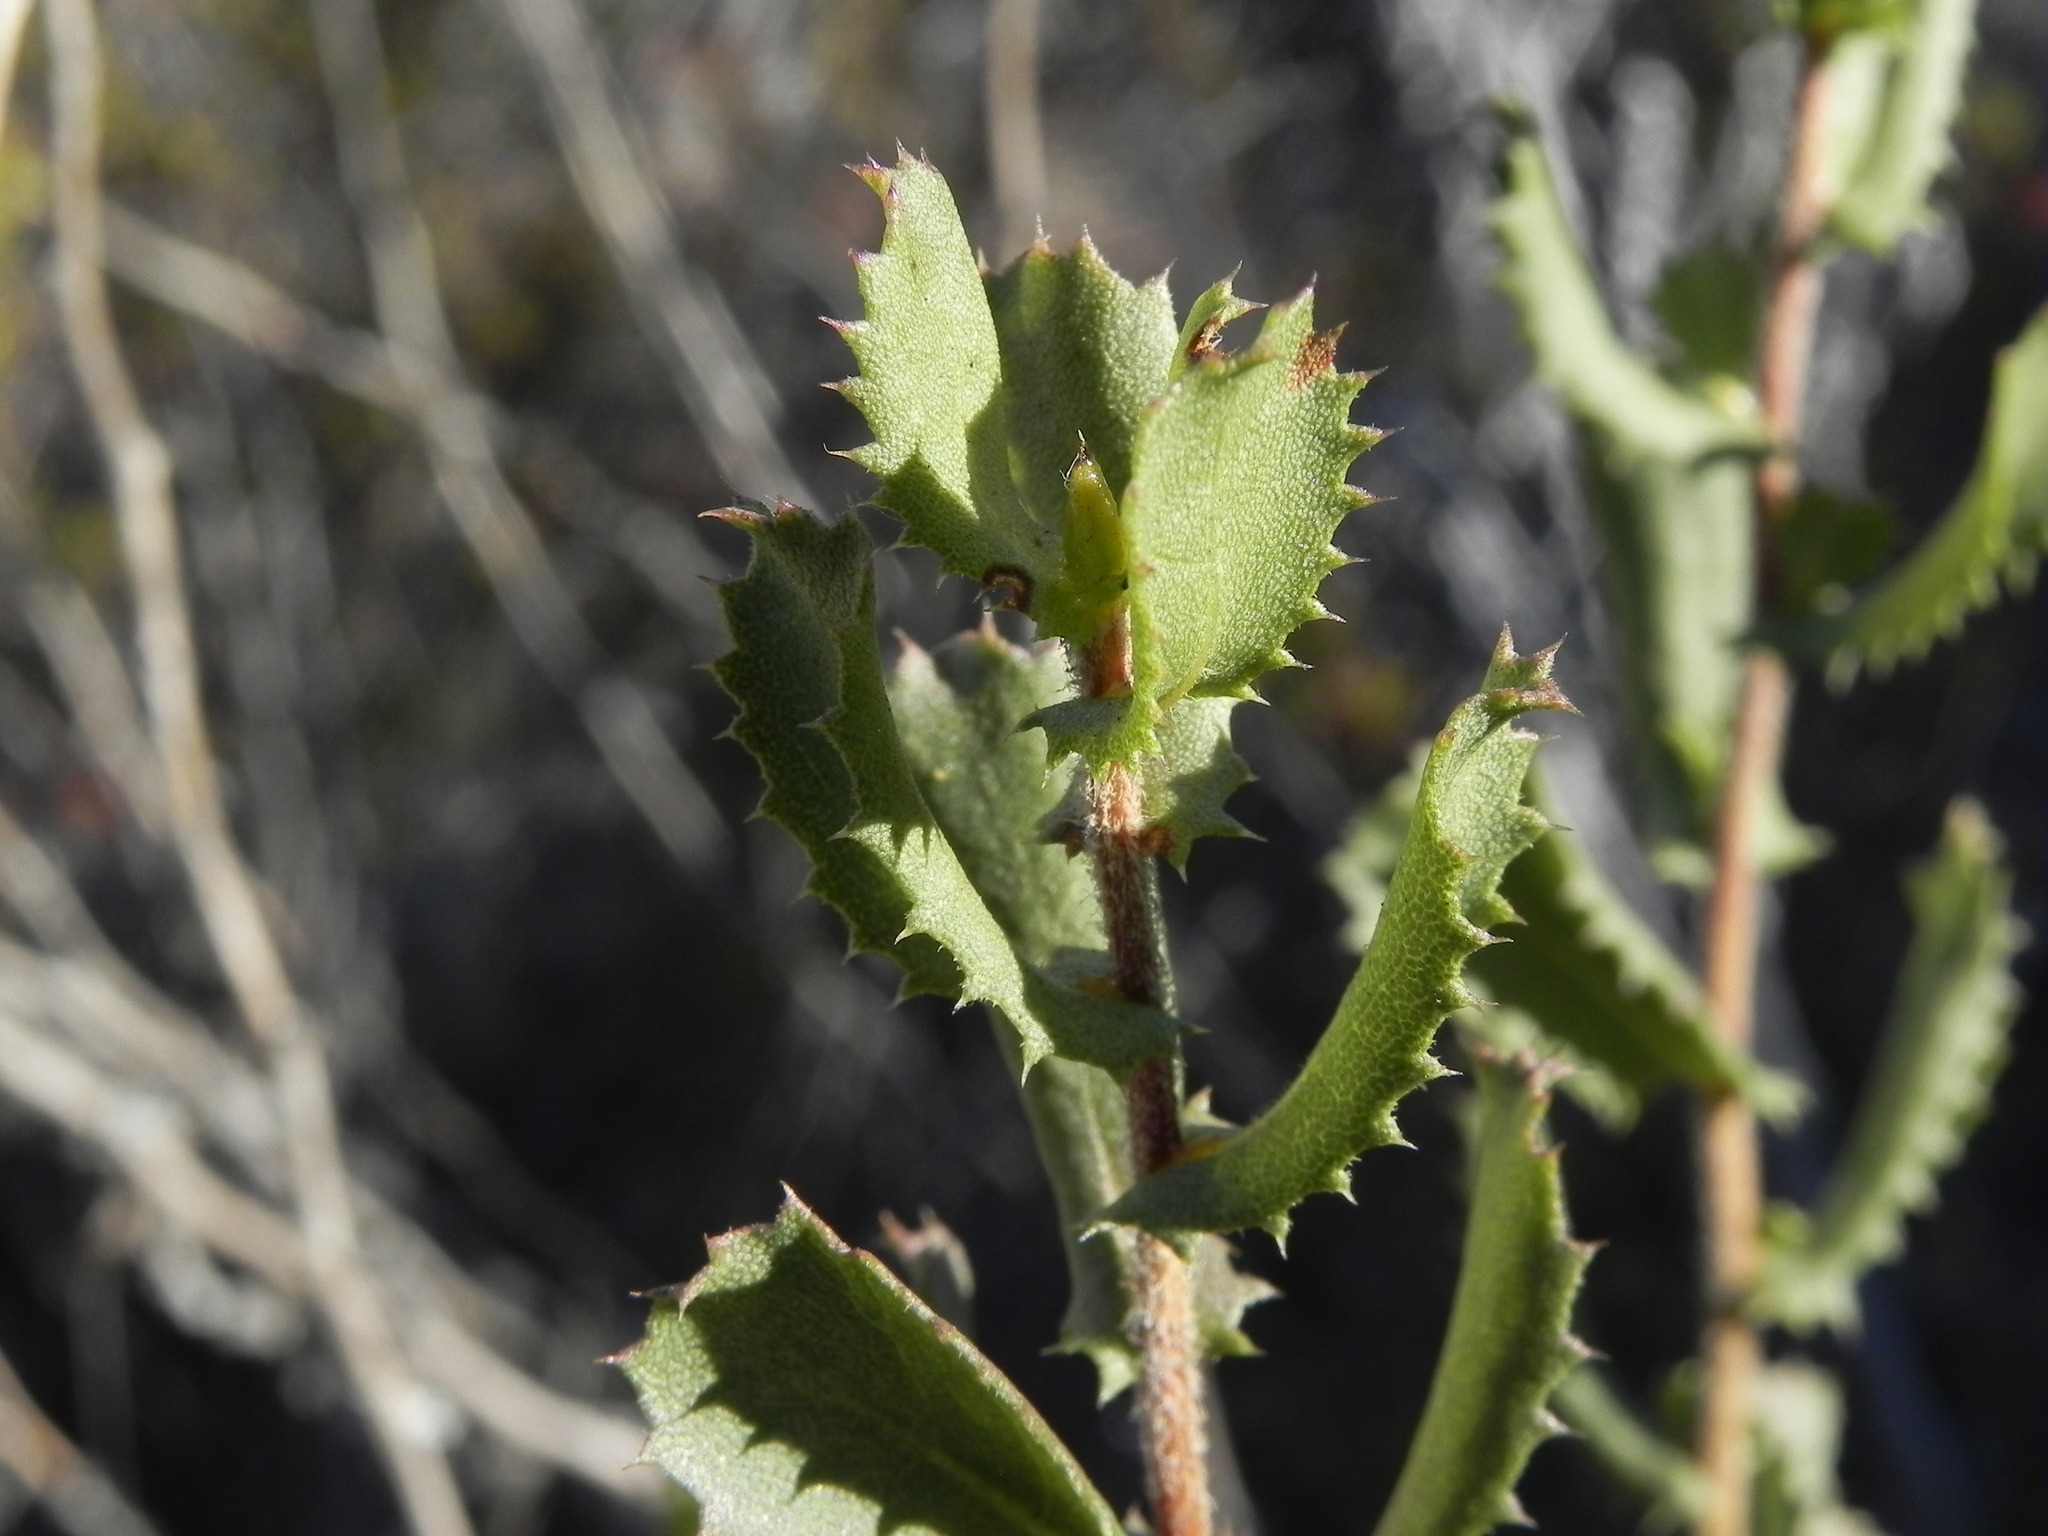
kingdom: Plantae
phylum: Tracheophyta
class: Magnoliopsida
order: Asterales
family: Asteraceae
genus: Hazardia
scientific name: Hazardia squarrosa
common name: Saw-tooth goldenbush
